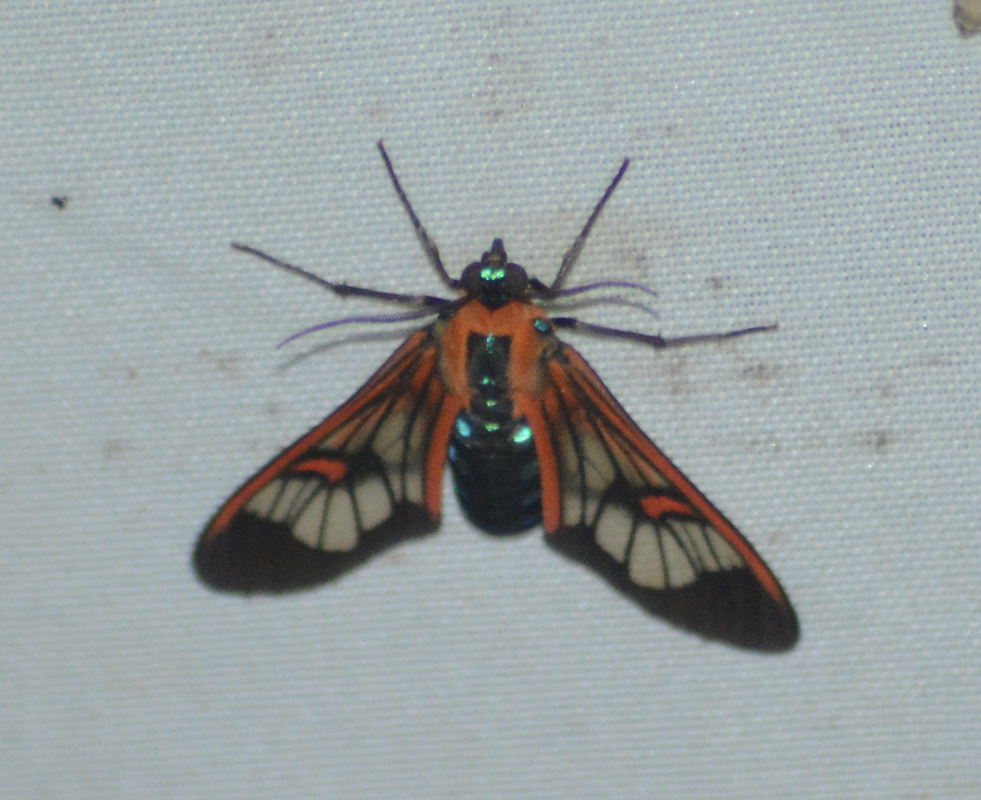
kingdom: Animalia
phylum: Arthropoda
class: Insecta
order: Lepidoptera
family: Erebidae
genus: Lepidoneiva
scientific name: Lepidoneiva
